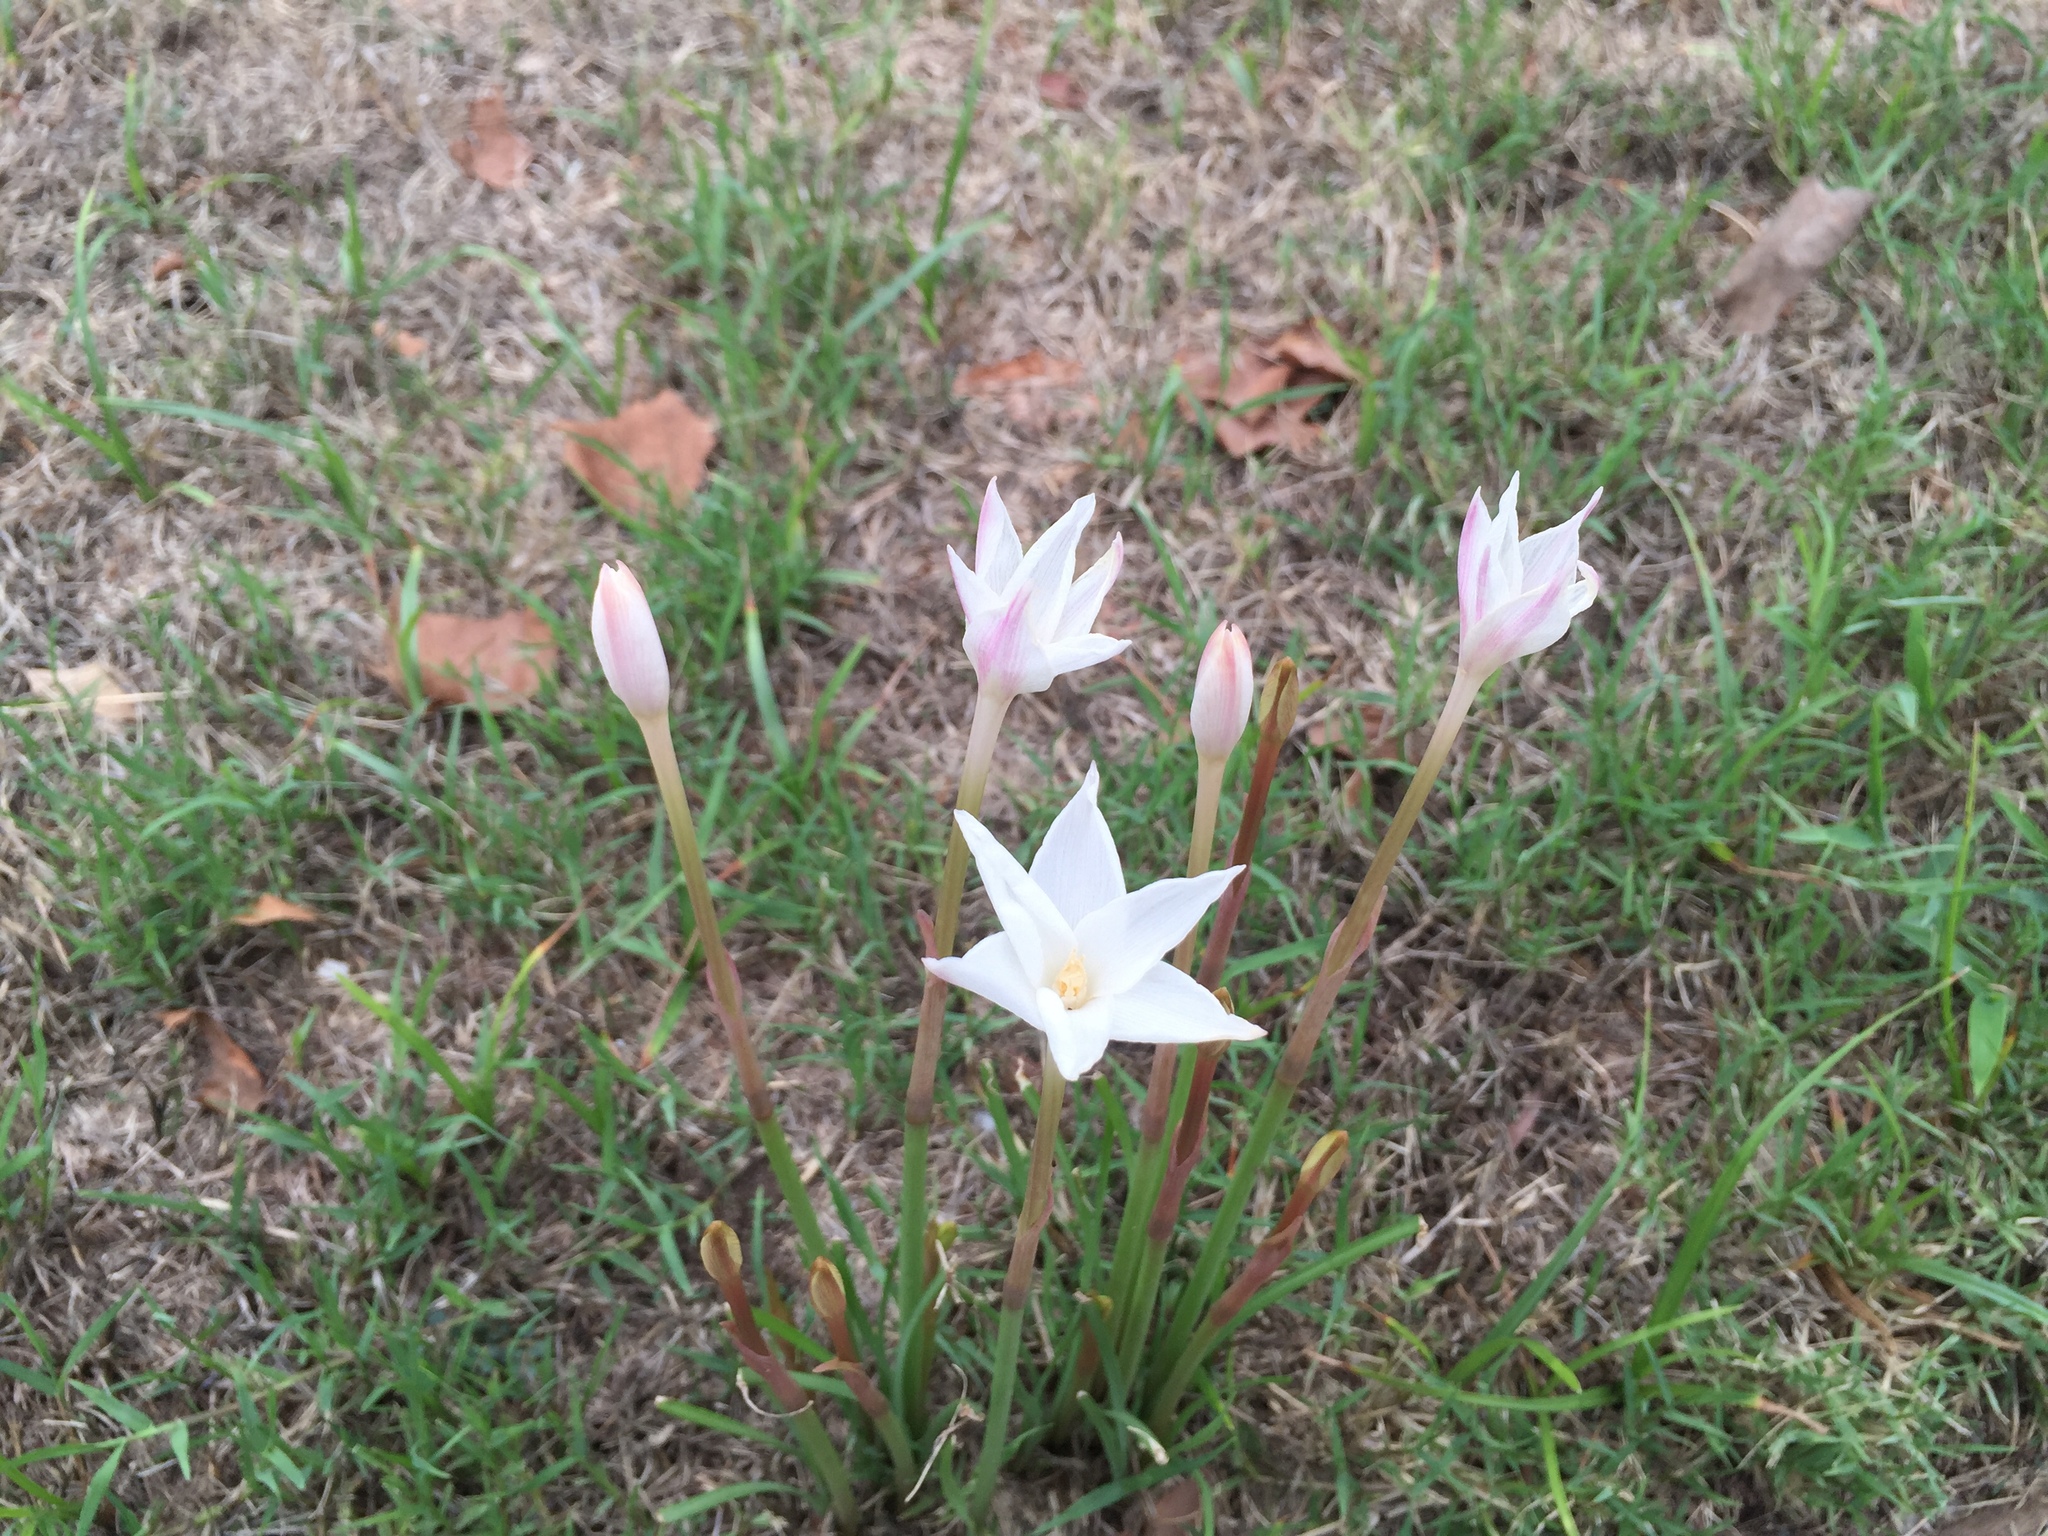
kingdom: Plantae
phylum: Tracheophyta
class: Liliopsida
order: Asparagales
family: Amaryllidaceae
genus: Zephyranthes
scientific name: Zephyranthes chlorosolen
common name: Evening rain-lily
